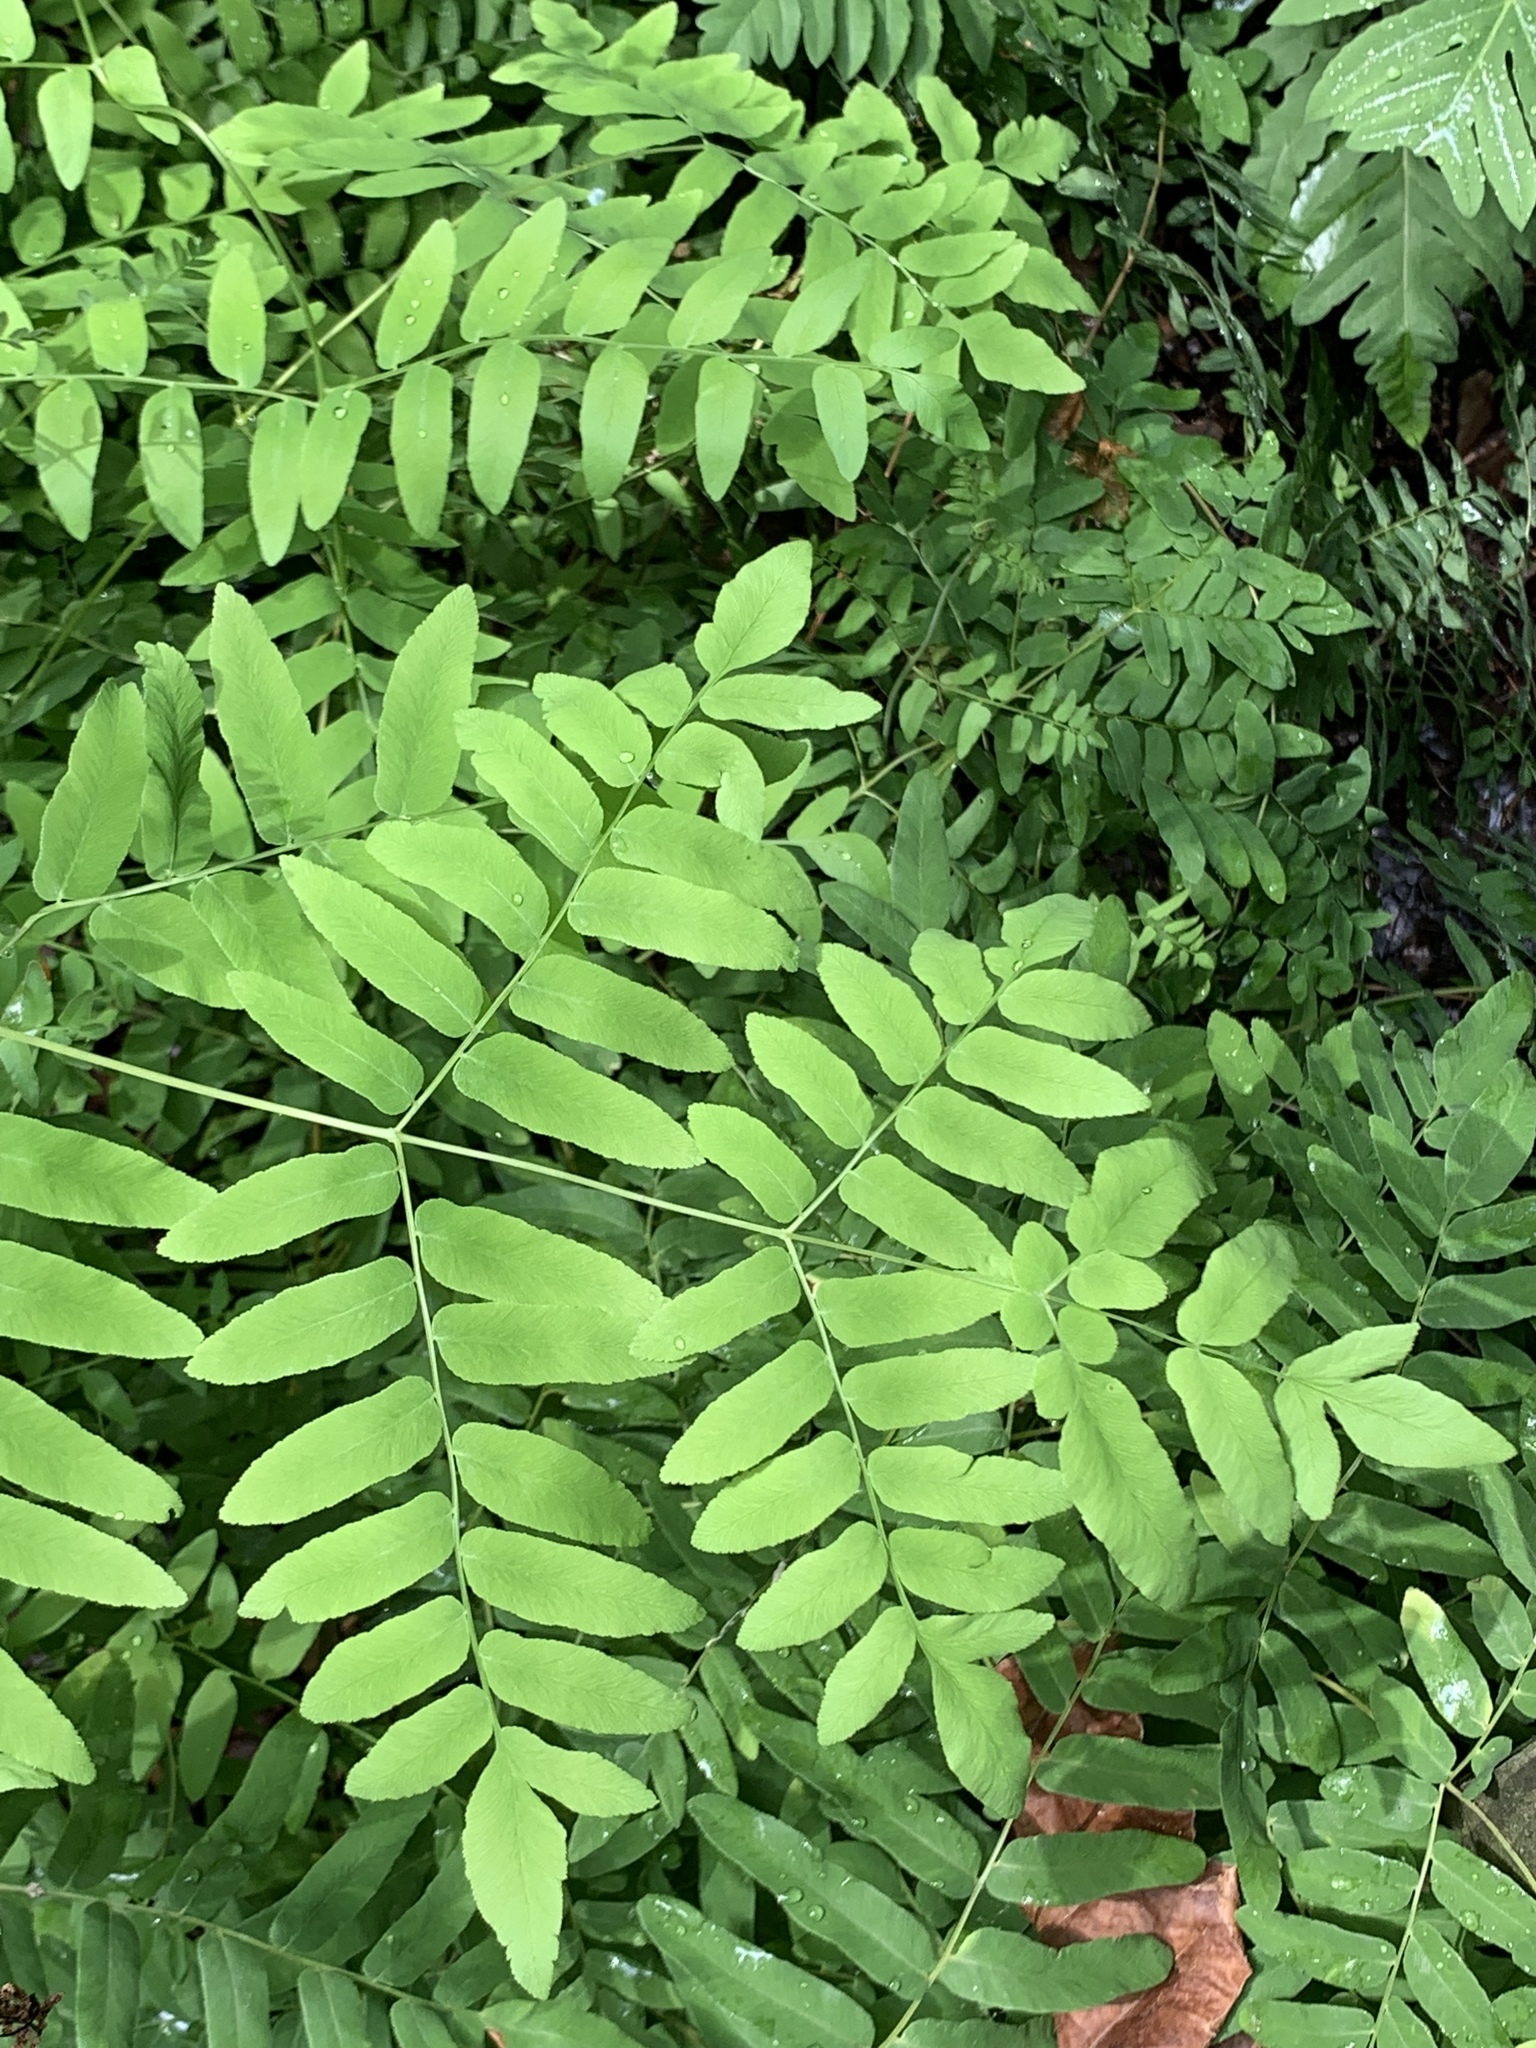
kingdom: Plantae
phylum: Tracheophyta
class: Polypodiopsida
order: Osmundales
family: Osmundaceae
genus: Osmunda
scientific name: Osmunda spectabilis
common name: American royal fern
